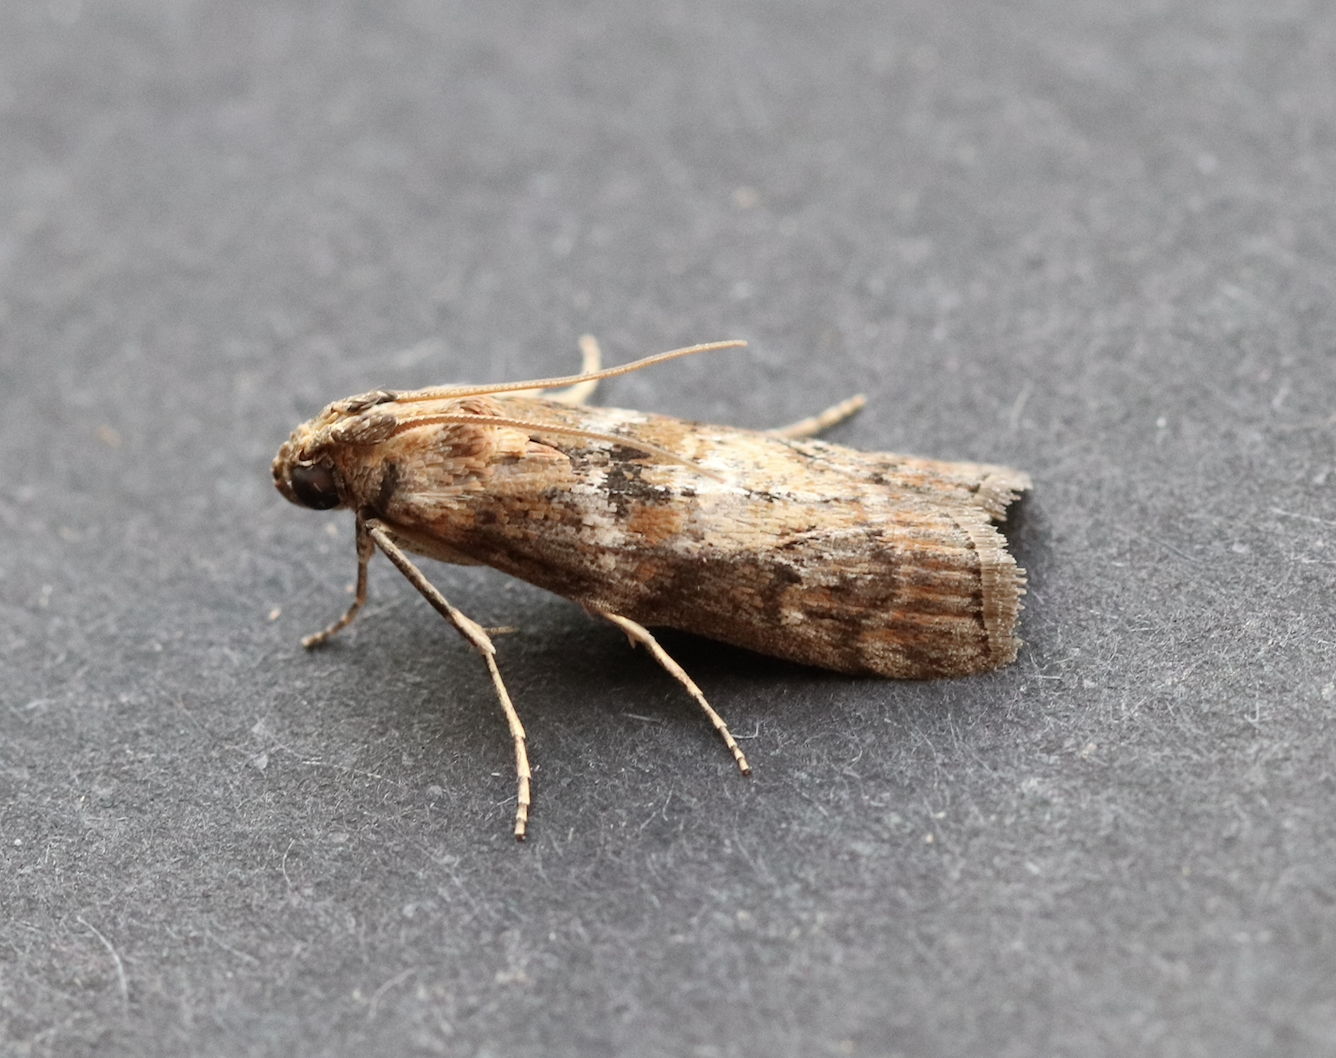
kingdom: Animalia
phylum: Arthropoda
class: Insecta
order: Lepidoptera
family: Pyralidae
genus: Phycita
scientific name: Phycita roborella
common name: Dotted oak knot-horn
